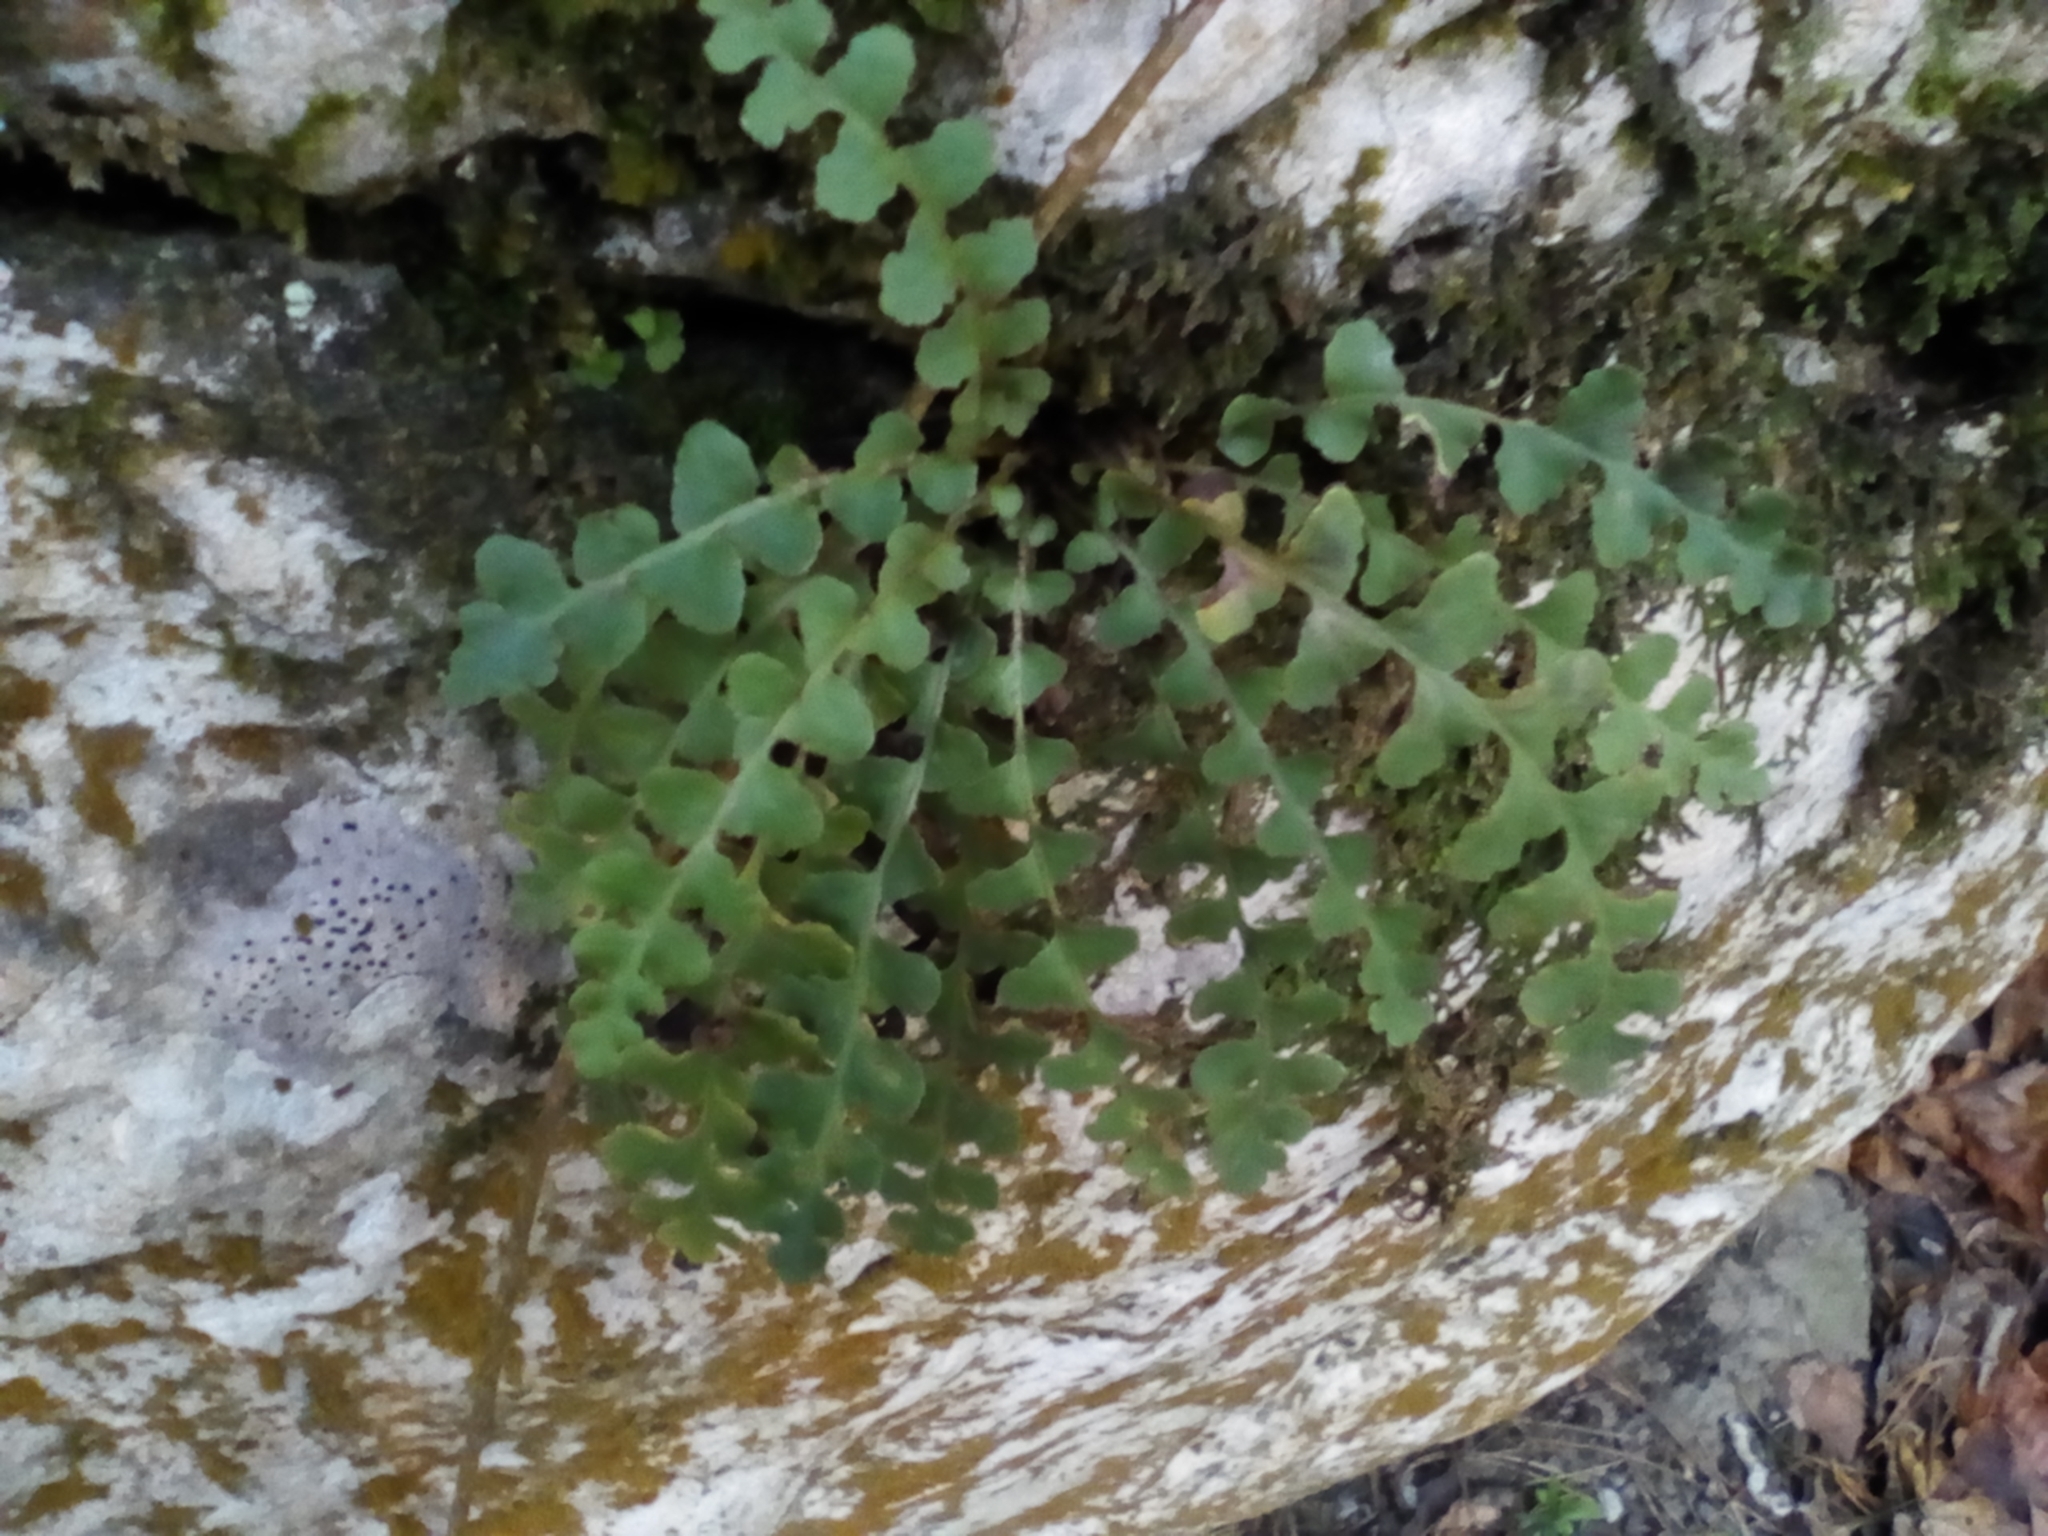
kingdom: Plantae
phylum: Tracheophyta
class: Polypodiopsida
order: Polypodiales
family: Aspleniaceae
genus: Asplenium
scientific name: Asplenium ceterach
